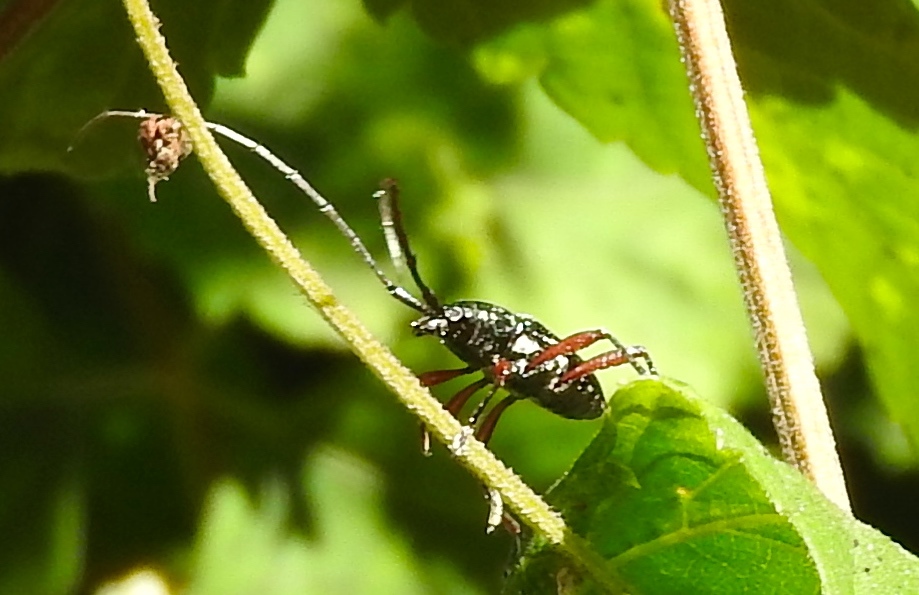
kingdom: Animalia
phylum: Arthropoda
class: Insecta
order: Coleoptera
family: Cerambycidae
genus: Stenosphenus
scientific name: Stenosphenus
